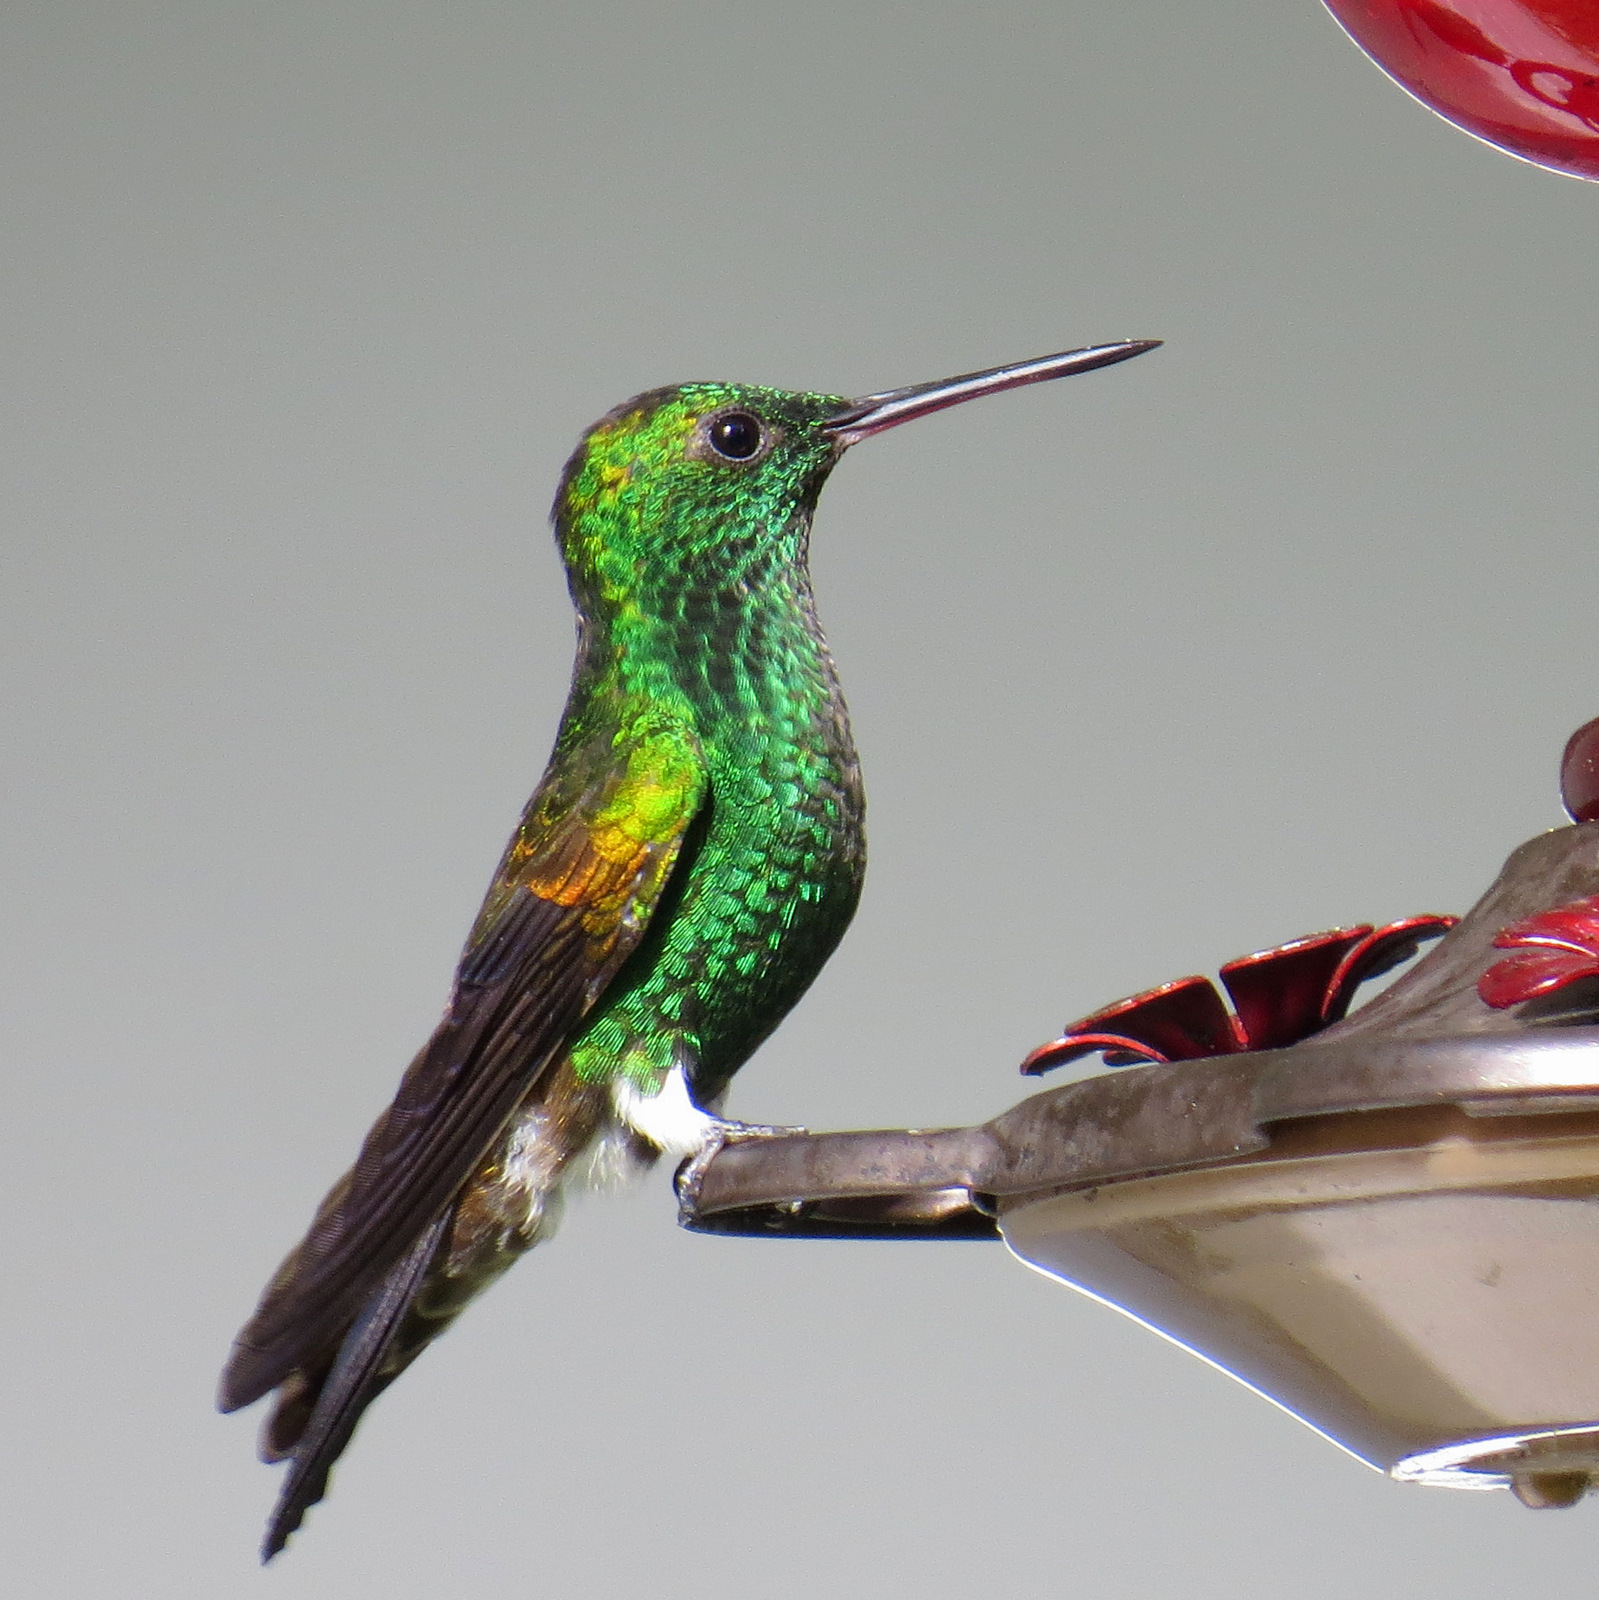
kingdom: Animalia
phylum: Chordata
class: Aves
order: Apodiformes
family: Trochilidae
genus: Saucerottia
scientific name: Saucerottia tobaci
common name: Copper-rumped hummingbird
